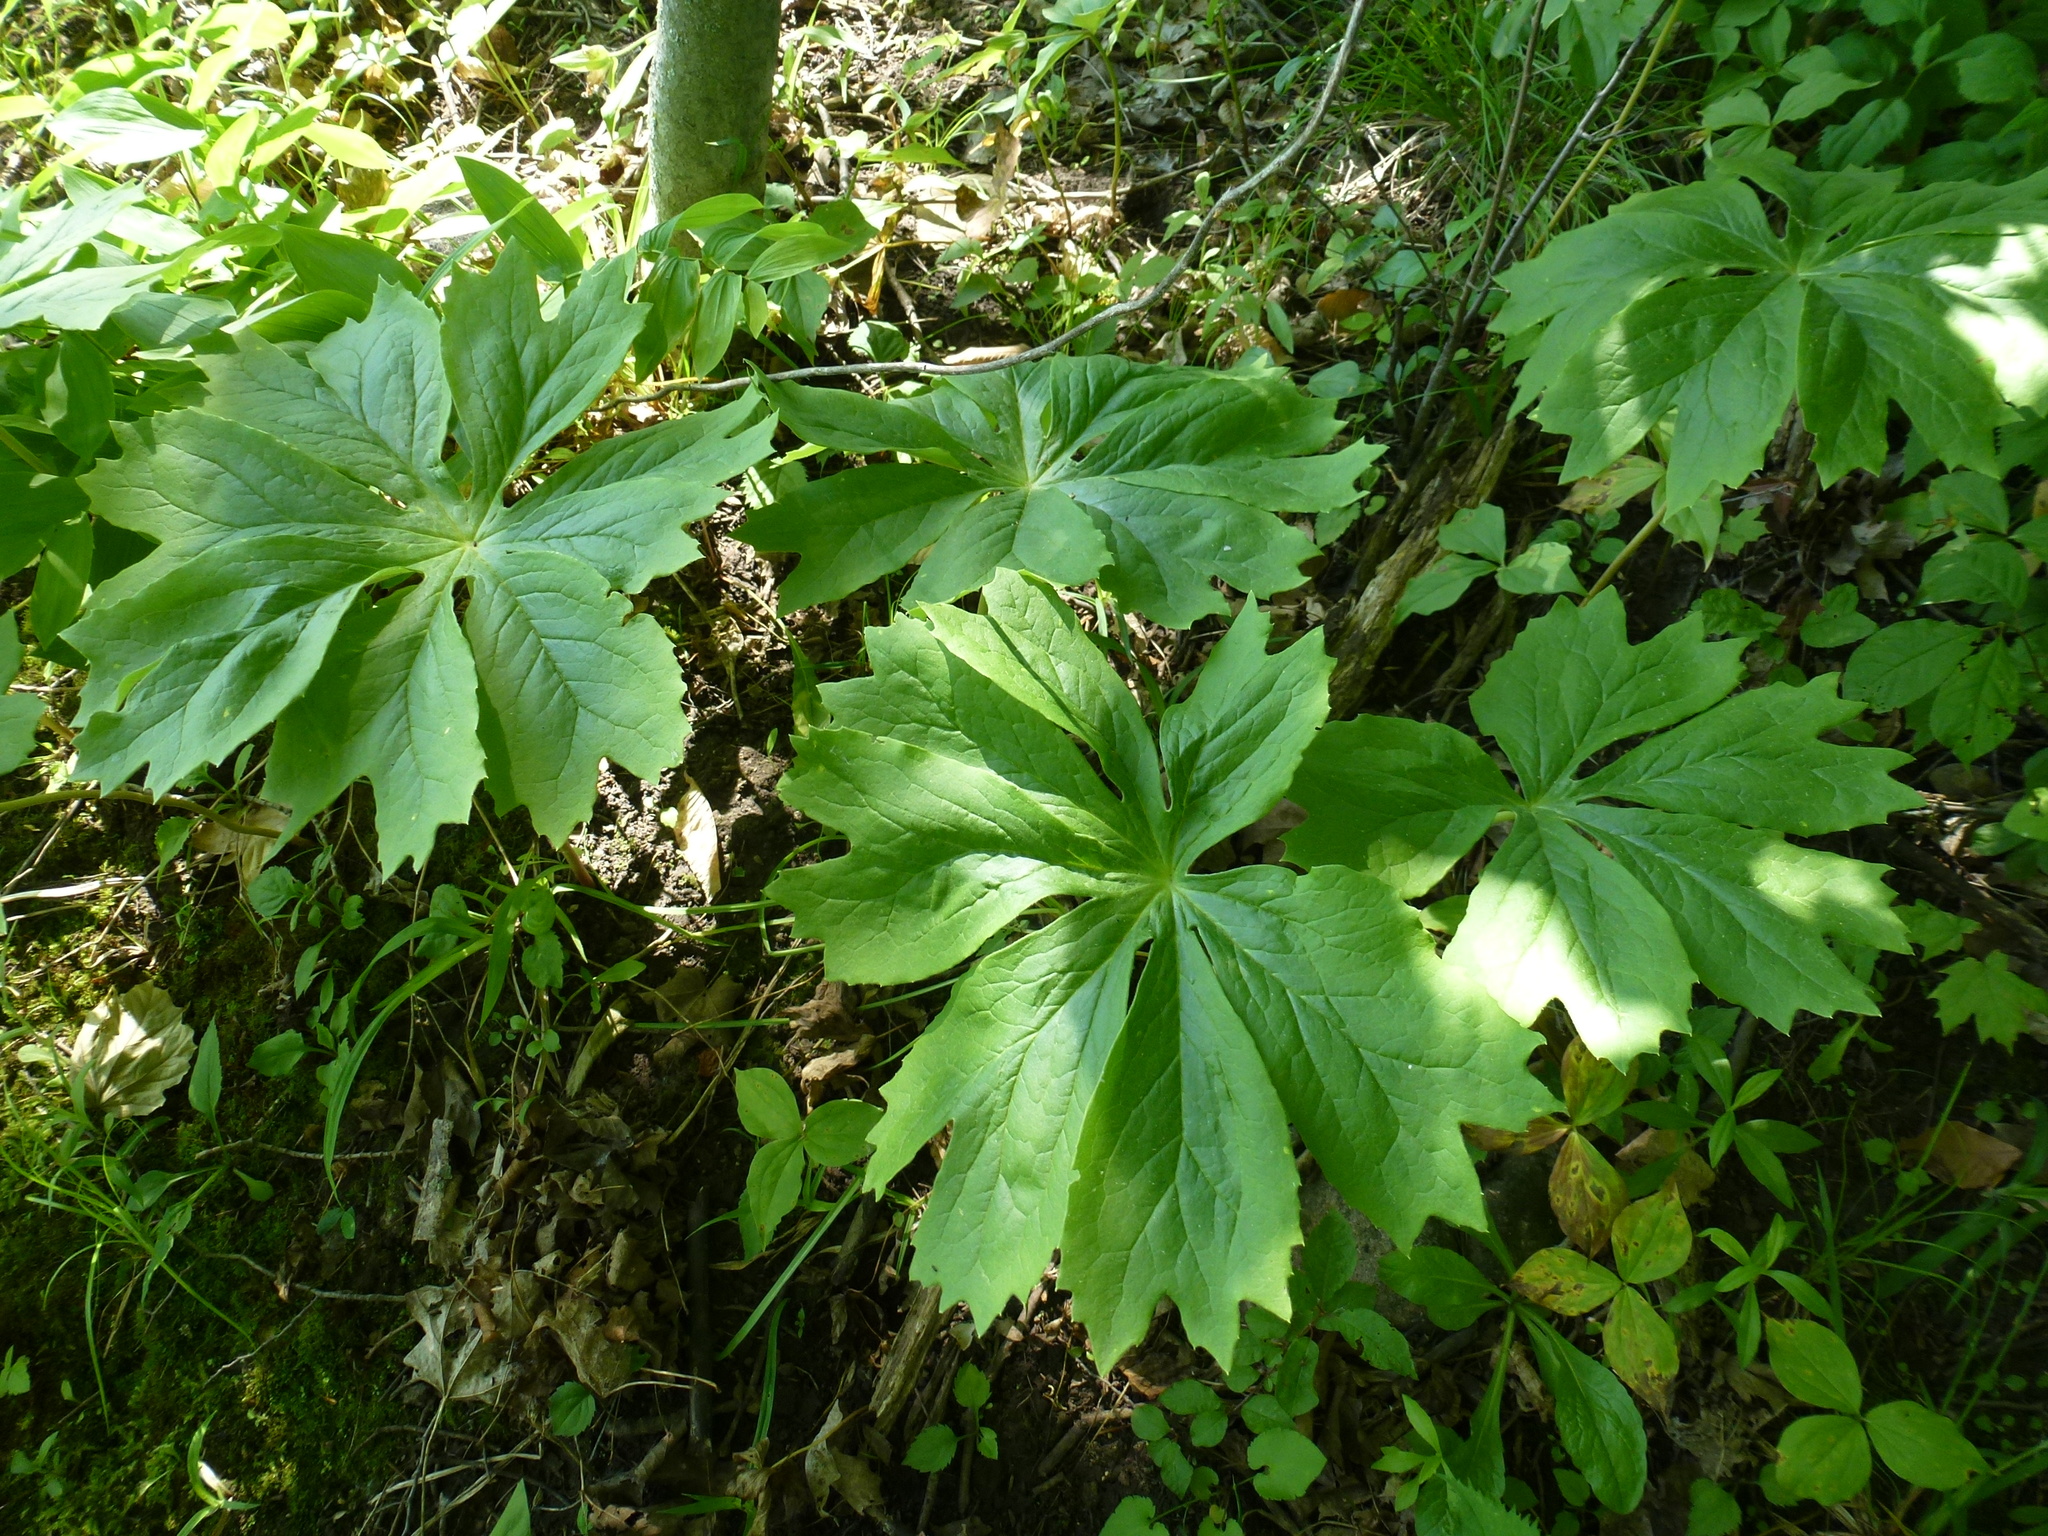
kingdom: Plantae
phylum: Tracheophyta
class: Magnoliopsida
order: Ranunculales
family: Berberidaceae
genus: Podophyllum
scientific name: Podophyllum peltatum
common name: Wild mandrake
